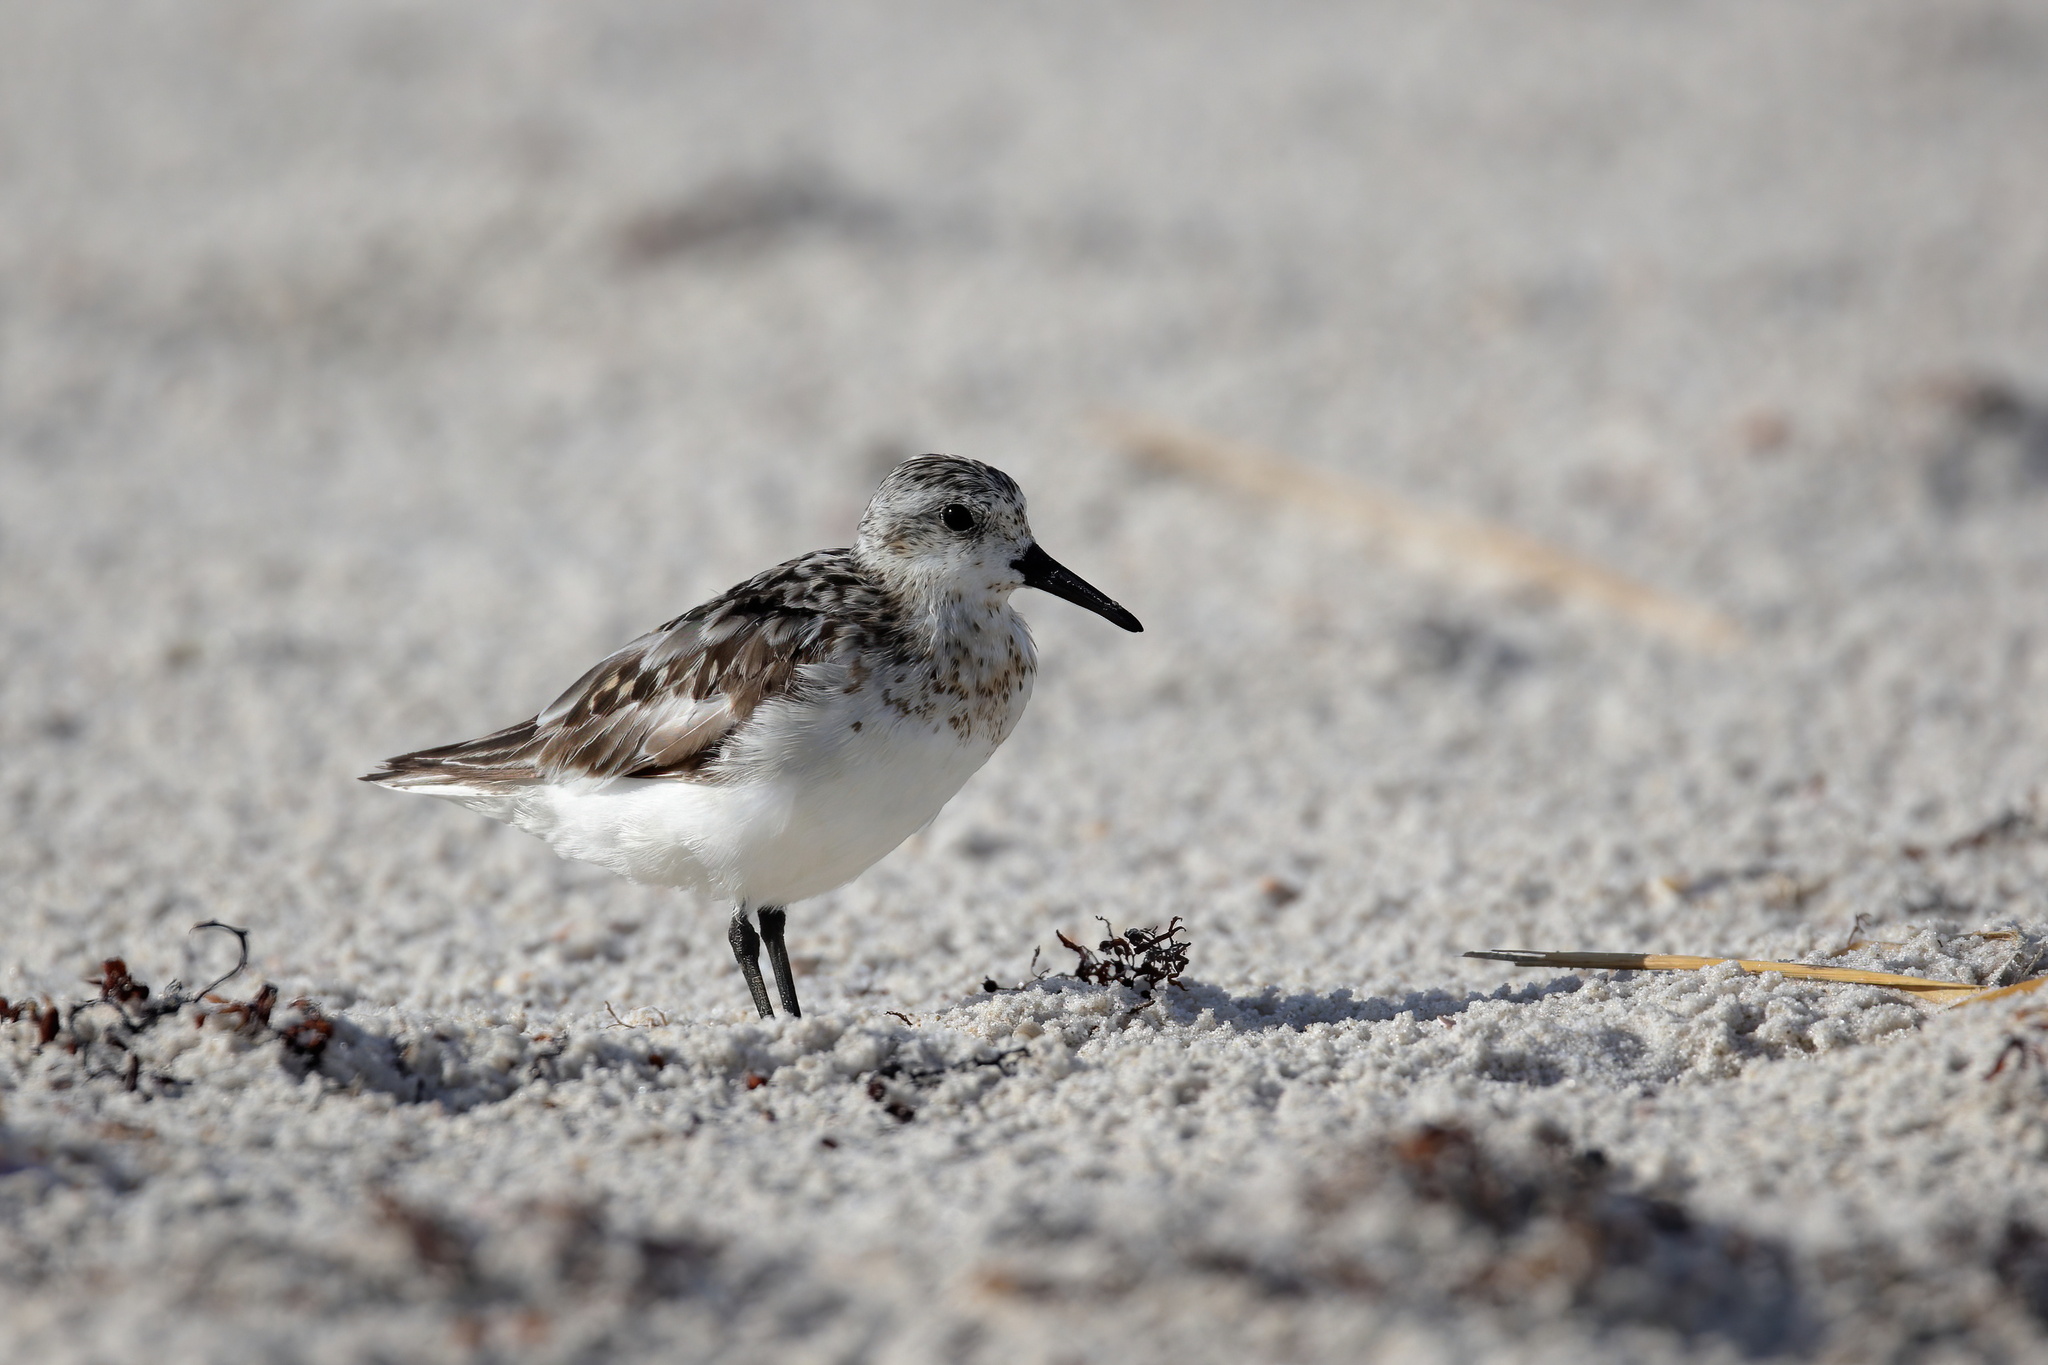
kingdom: Animalia
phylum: Chordata
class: Aves
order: Charadriiformes
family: Scolopacidae
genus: Calidris
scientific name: Calidris alba
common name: Sanderling
